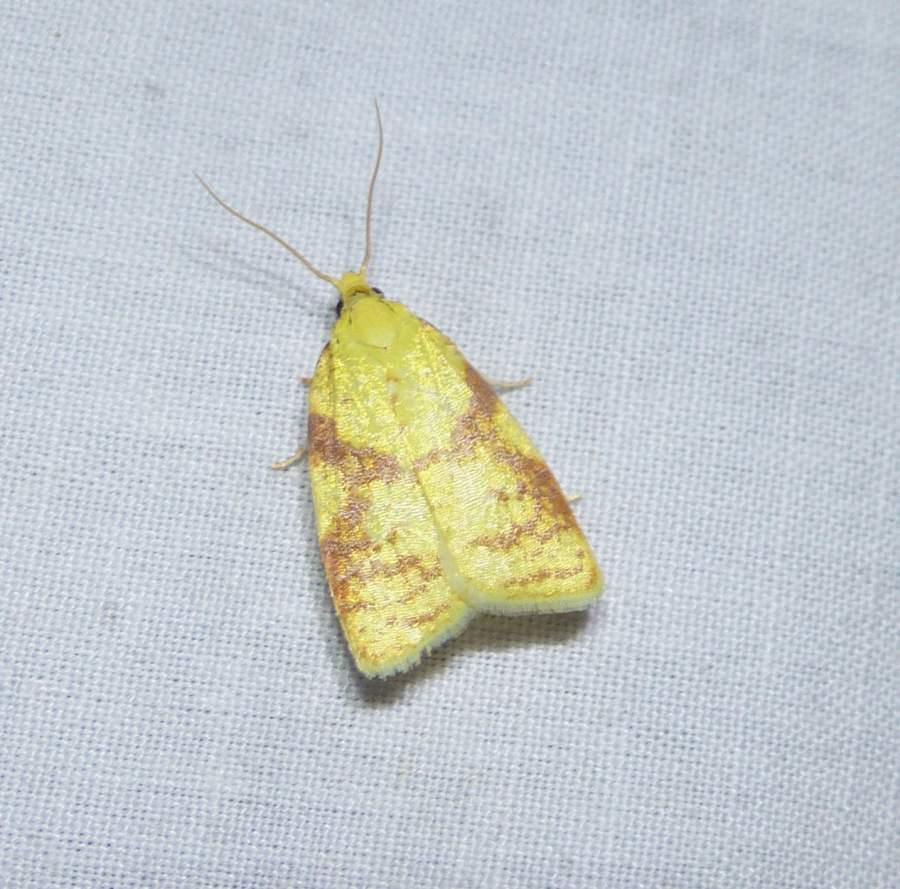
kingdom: Animalia
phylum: Arthropoda
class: Insecta
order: Lepidoptera
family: Tortricidae
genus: Cenopis
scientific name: Cenopis pettitana
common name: Maple-basswood leafroller moth
